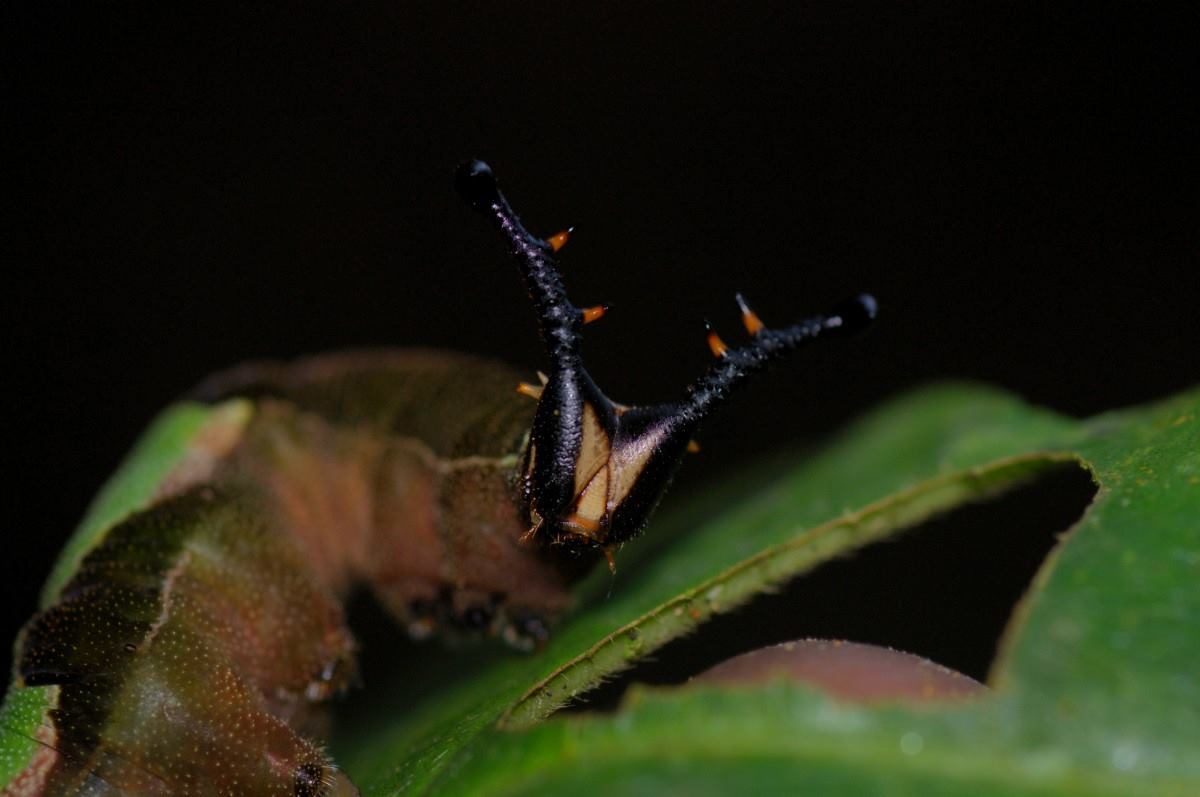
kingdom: Animalia
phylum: Arthropoda
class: Insecta
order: Lepidoptera
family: Nymphalidae
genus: Stibochiona
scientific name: Stibochiona nicea
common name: Popinjay
